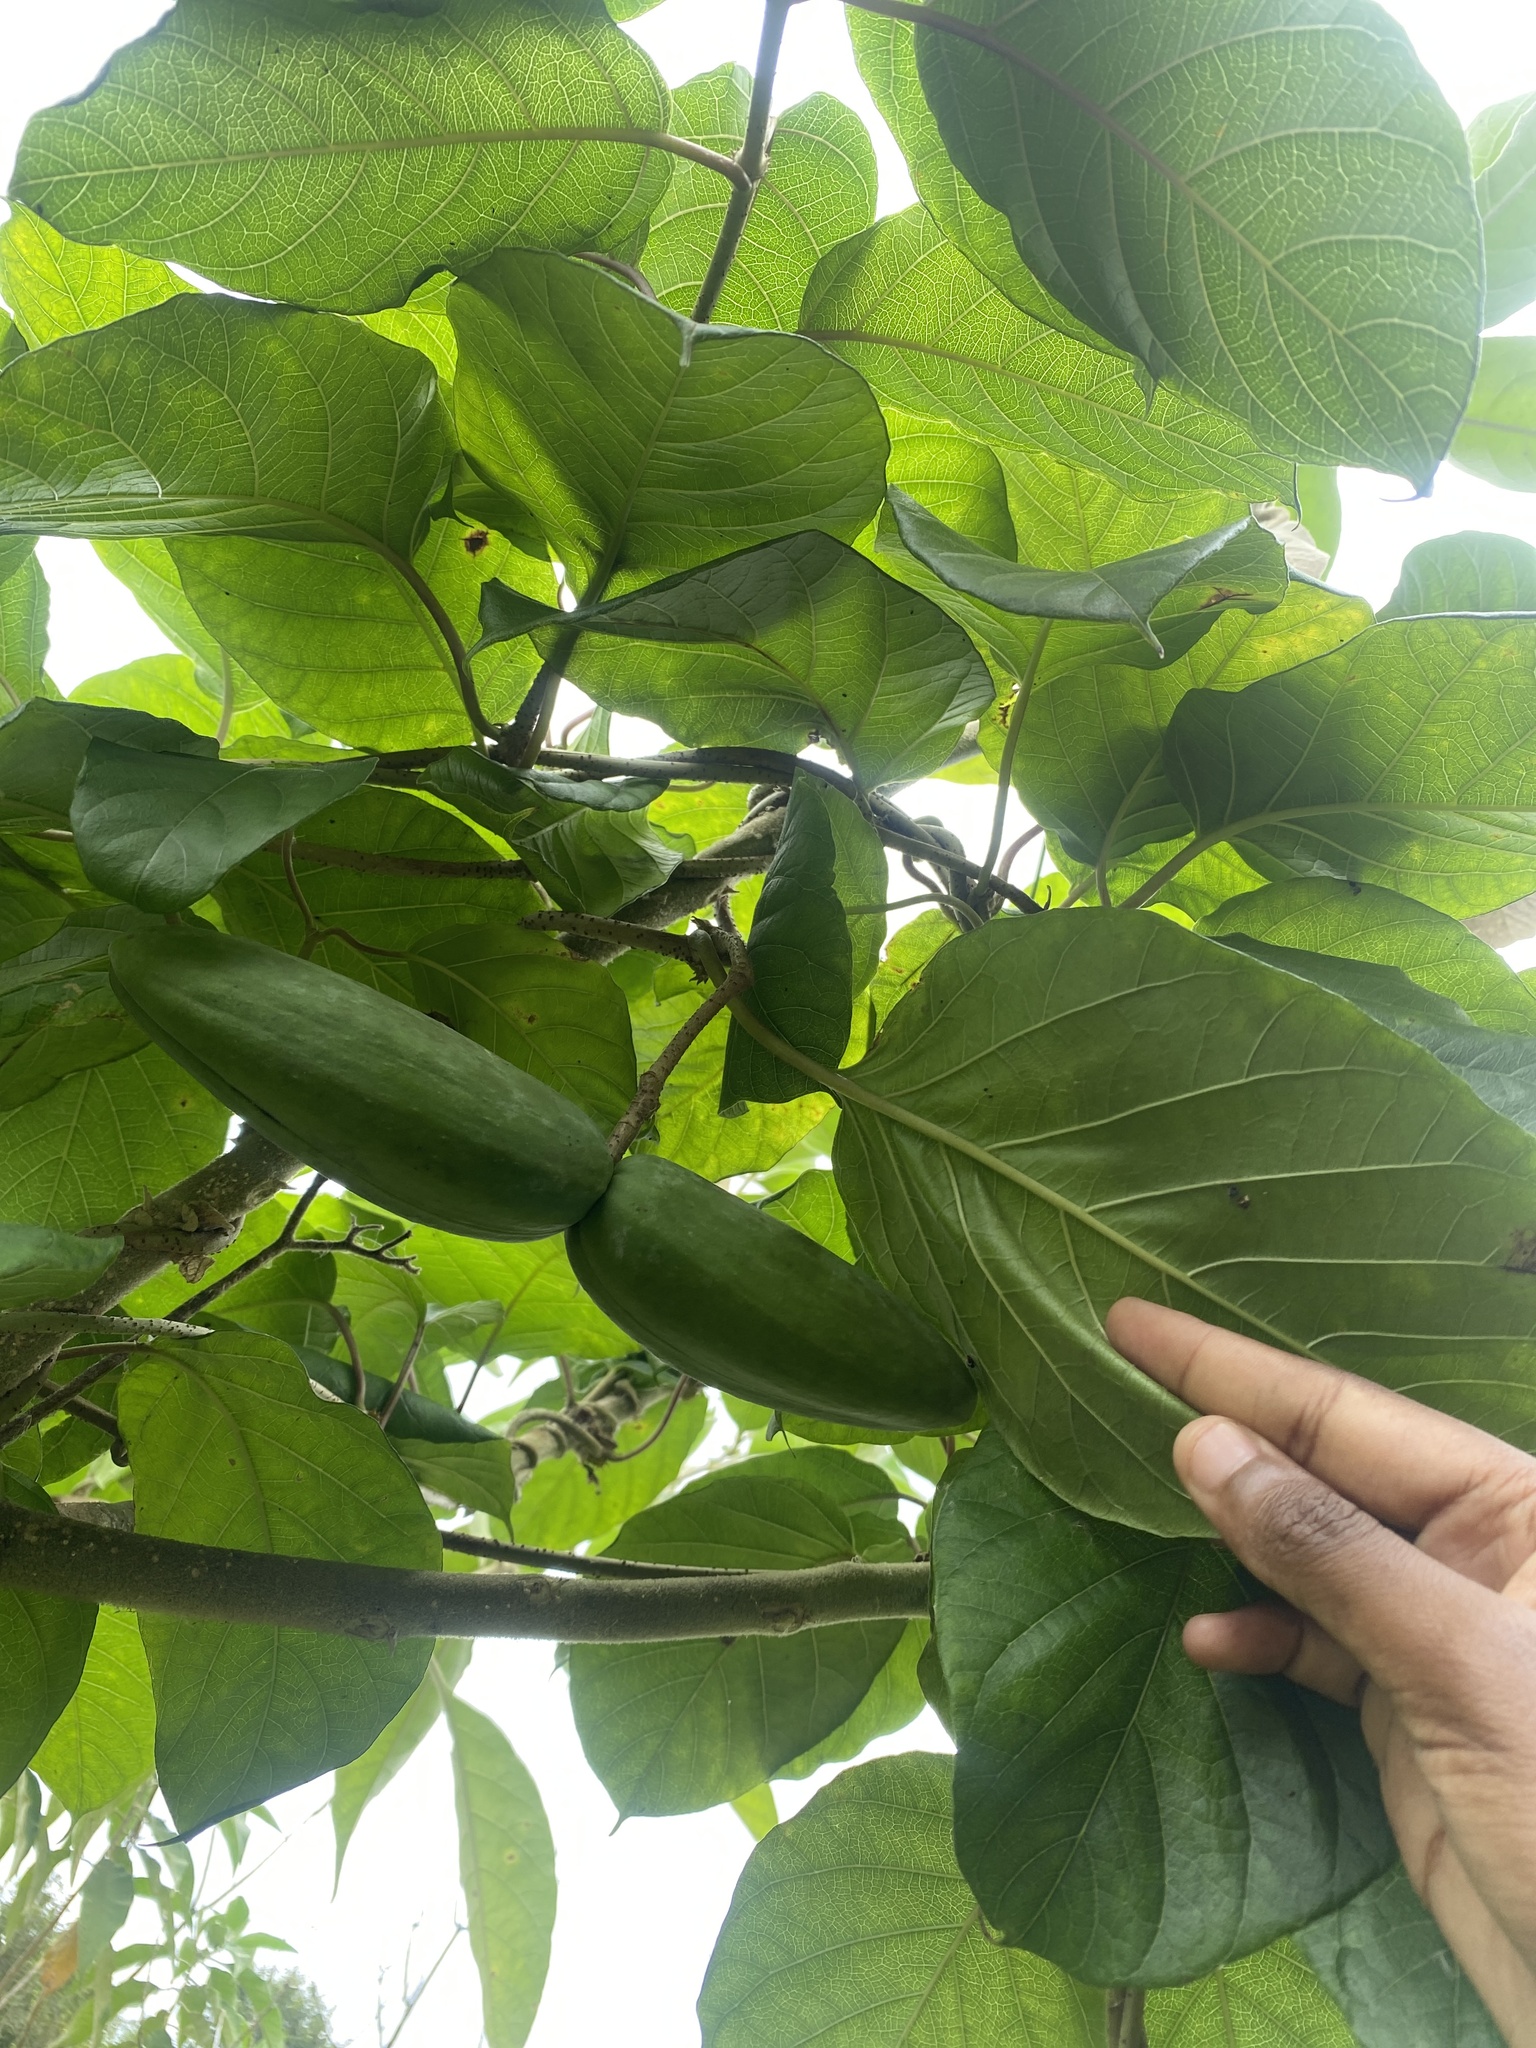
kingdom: Plantae
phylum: Tracheophyta
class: Magnoliopsida
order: Gentianales
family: Apocynaceae
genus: Mondia
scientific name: Mondia whitei
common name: Mondia
